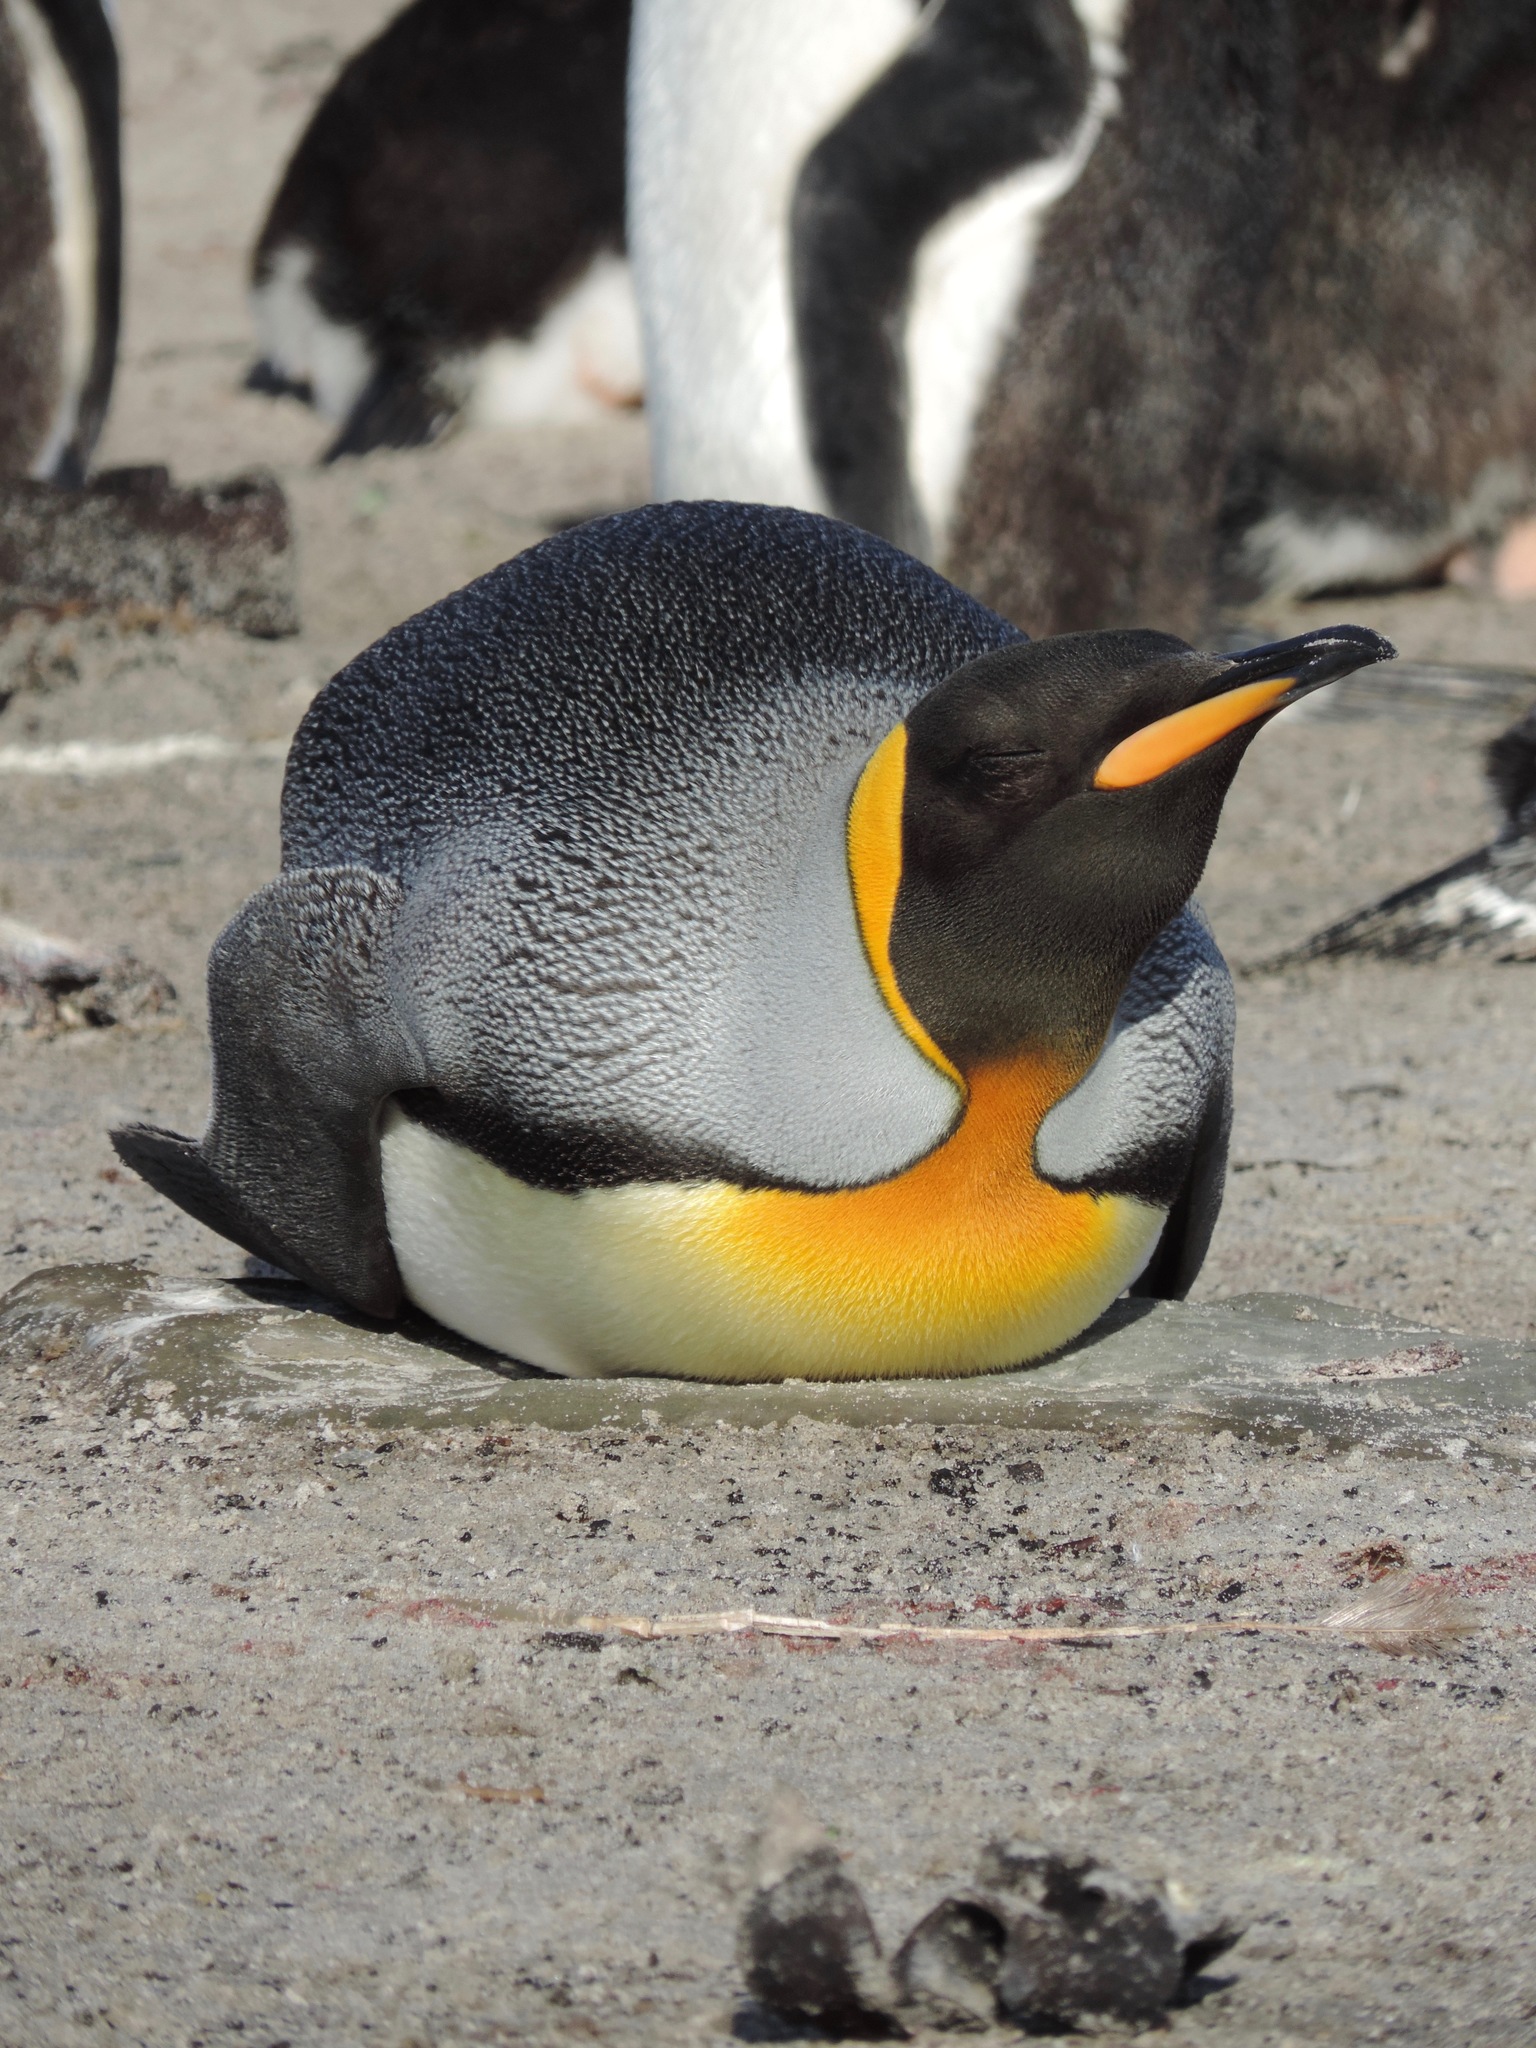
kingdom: Animalia
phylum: Chordata
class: Aves
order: Sphenisciformes
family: Spheniscidae
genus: Aptenodytes
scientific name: Aptenodytes patagonicus
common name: King penguin
